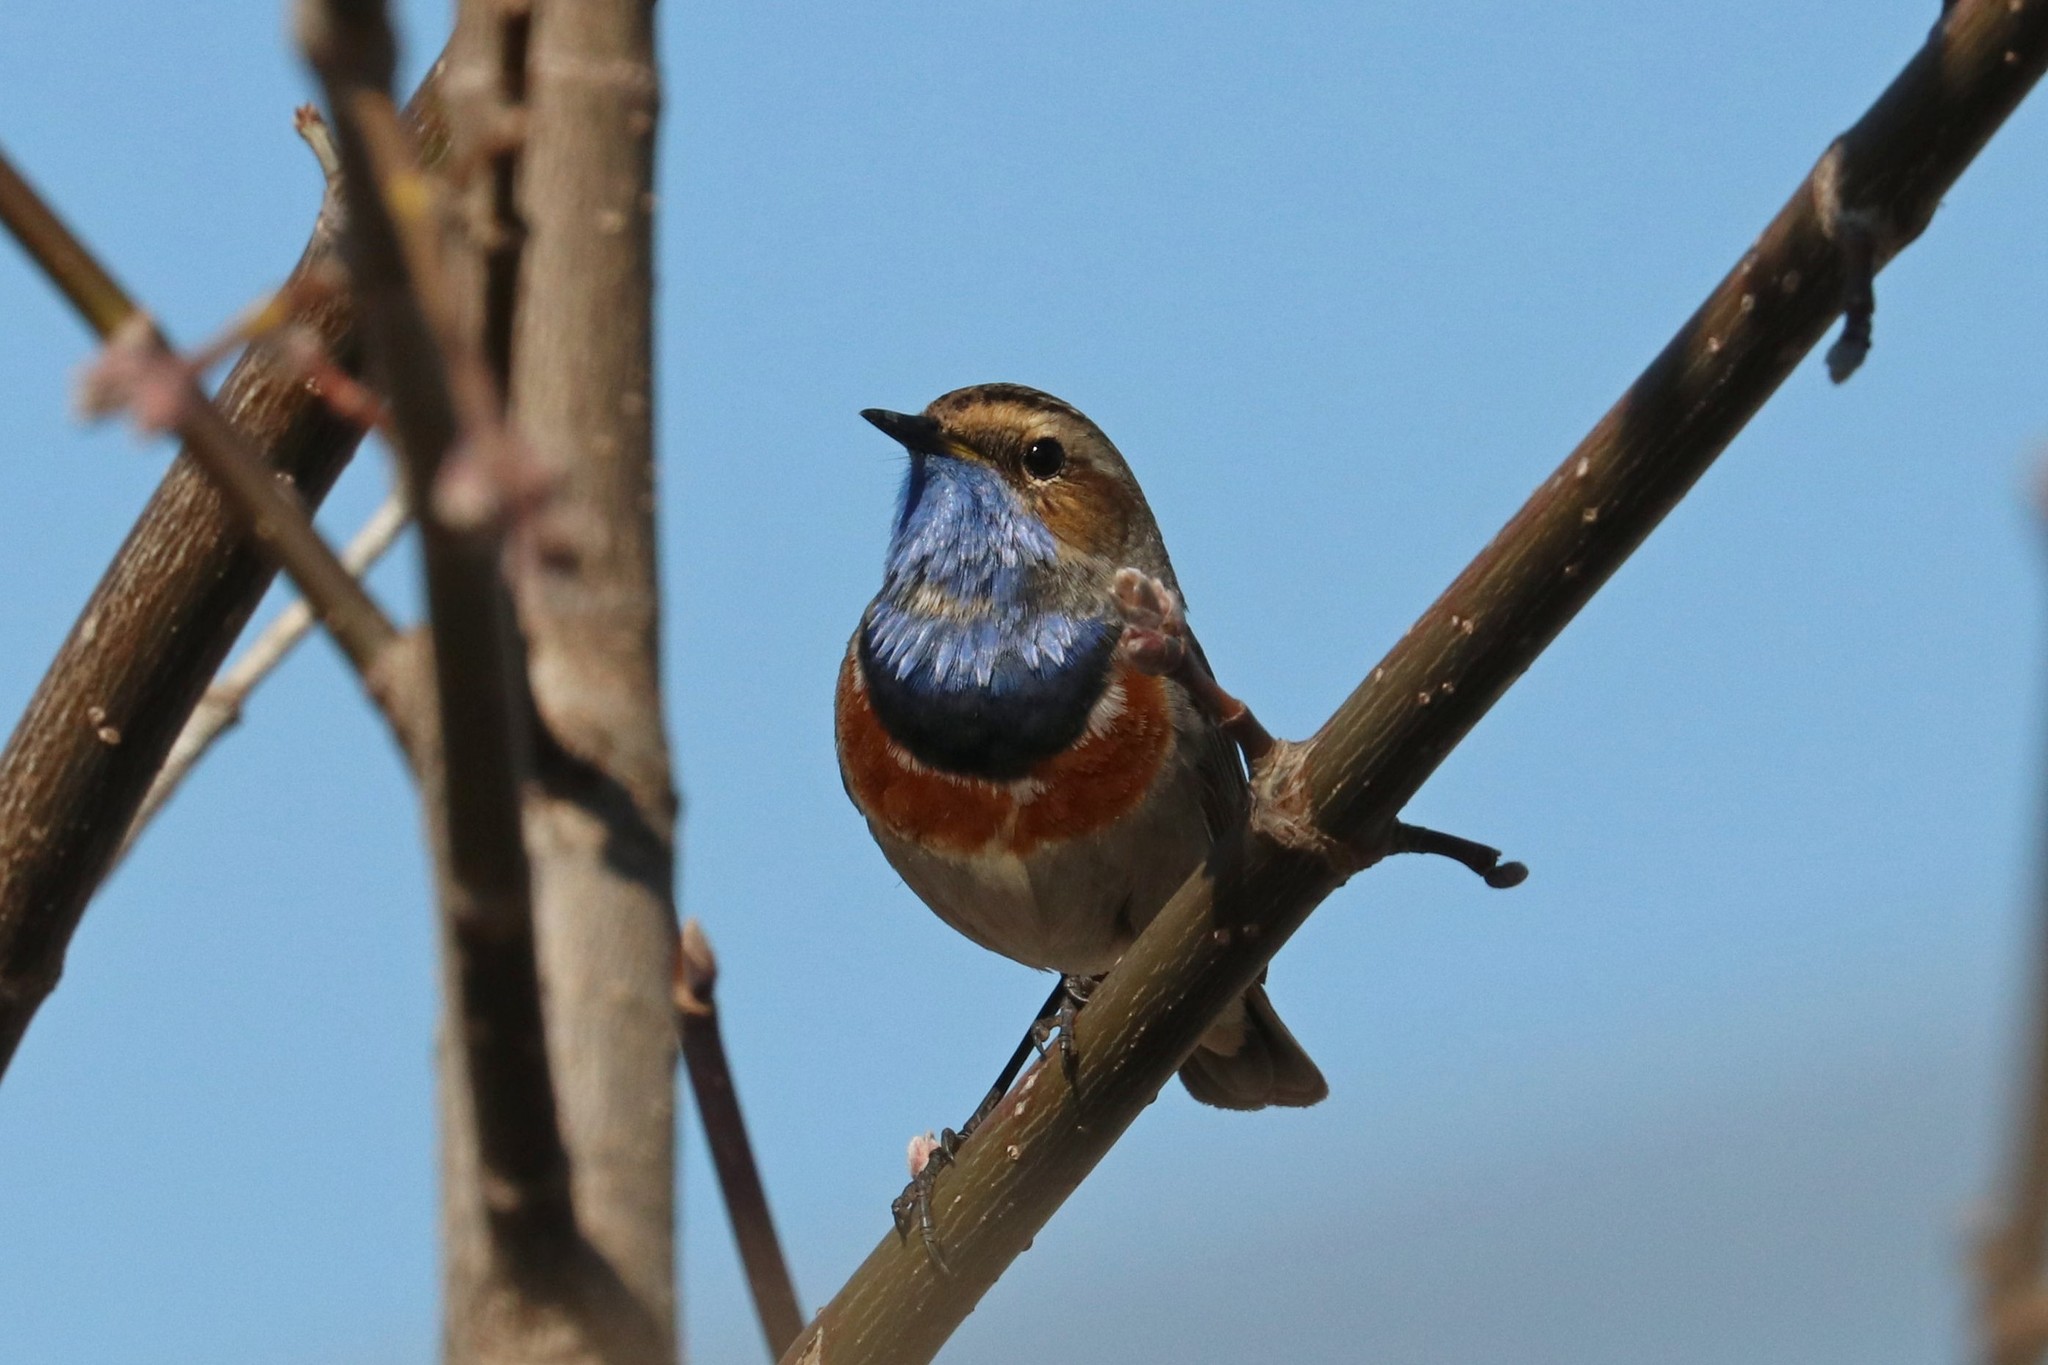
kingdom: Animalia
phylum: Chordata
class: Aves
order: Passeriformes
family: Muscicapidae
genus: Luscinia
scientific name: Luscinia svecica
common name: Bluethroat
